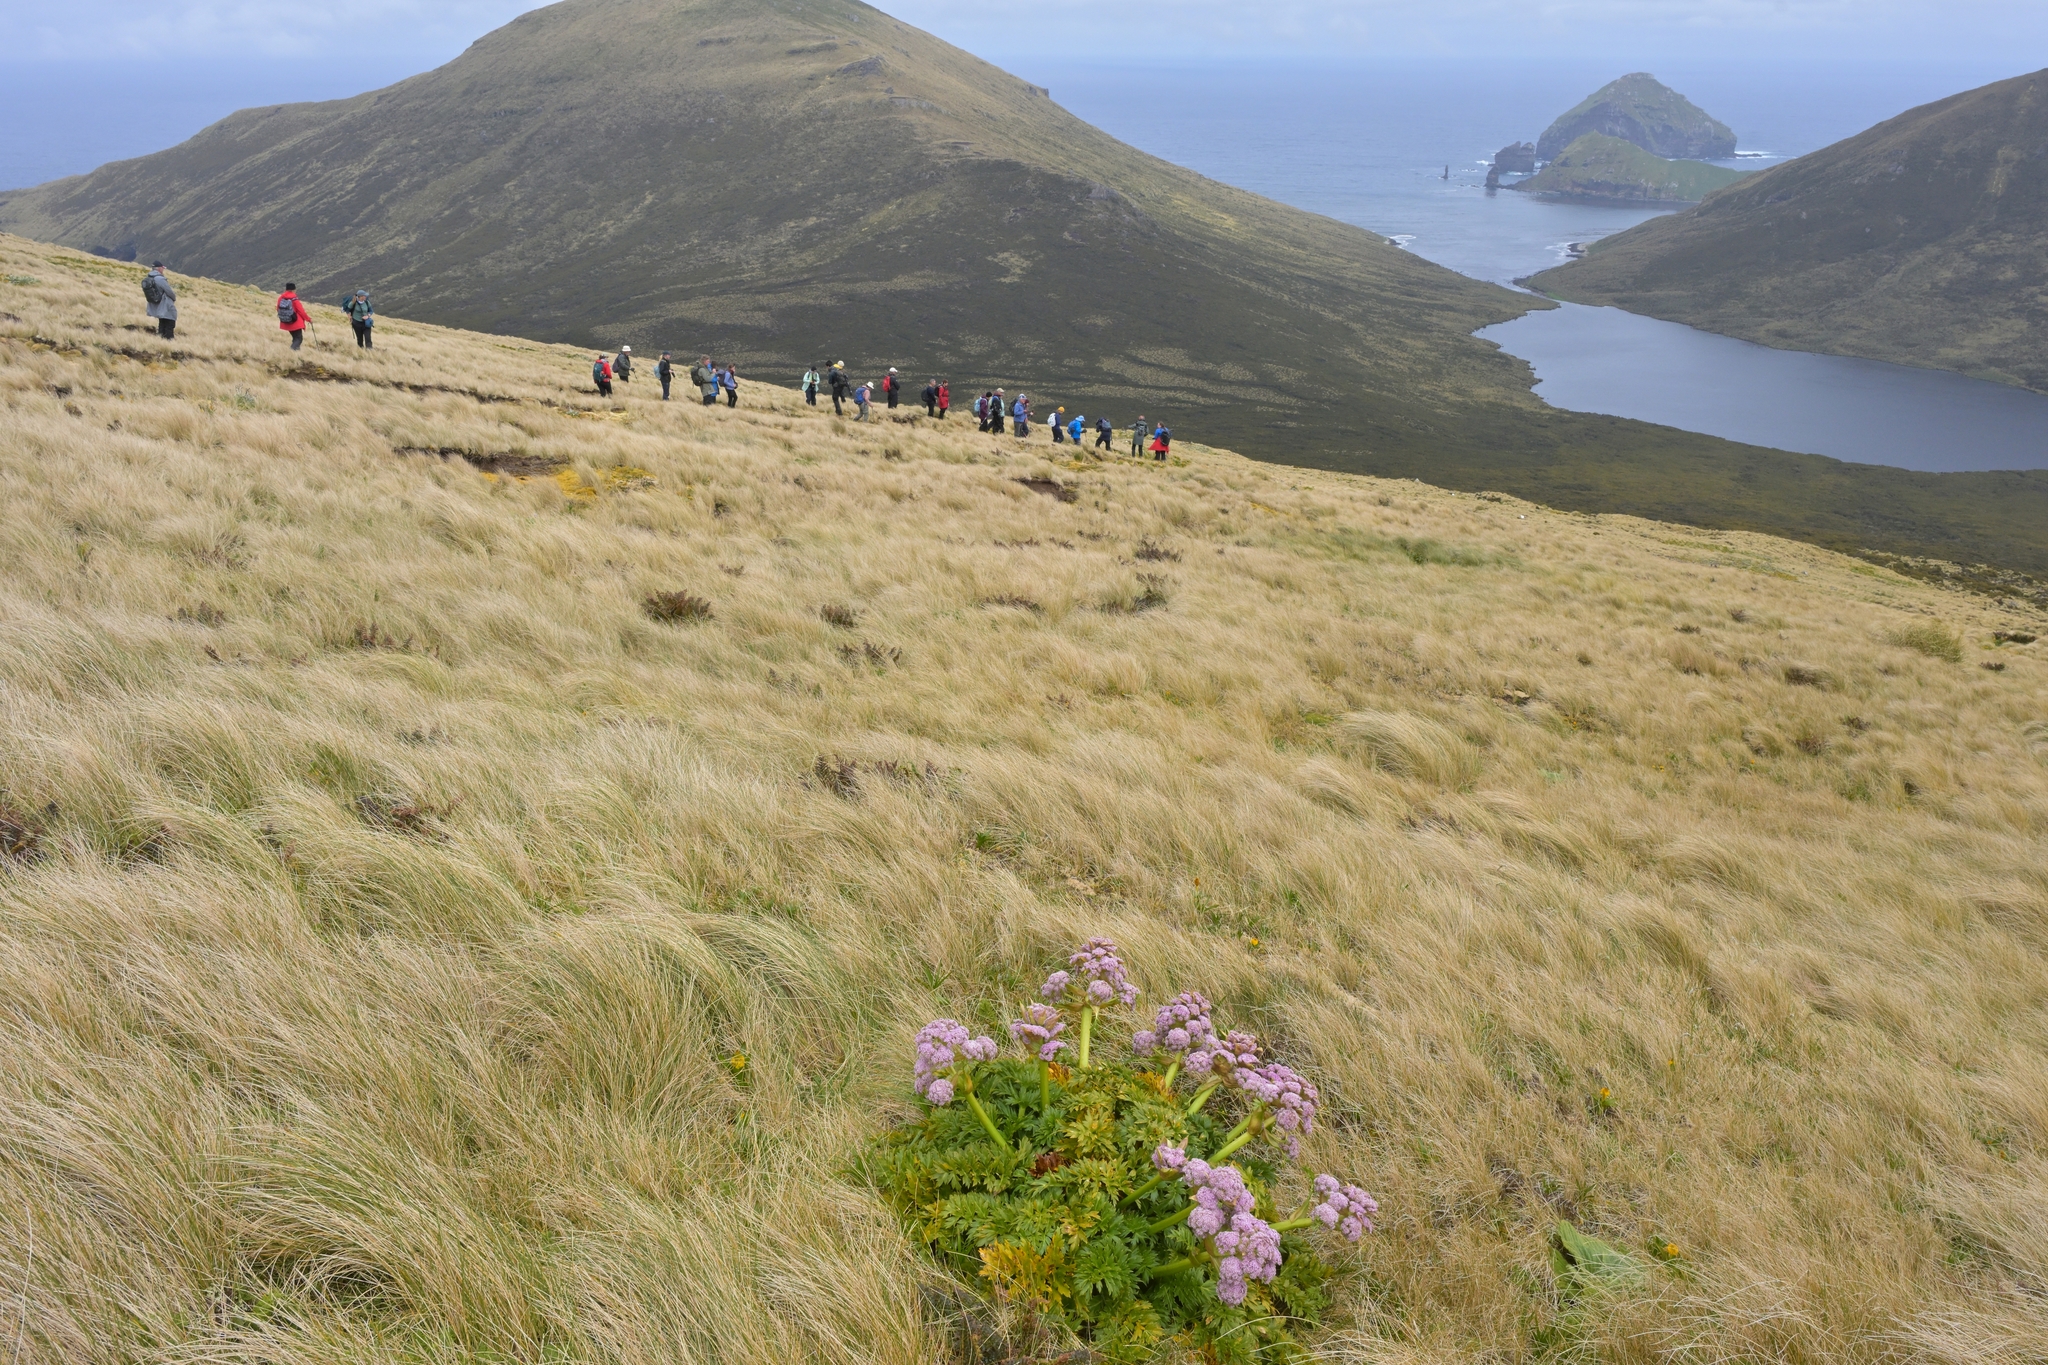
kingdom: Plantae
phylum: Tracheophyta
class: Magnoliopsida
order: Apiales
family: Apiaceae
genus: Anisotome
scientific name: Anisotome latifolia
